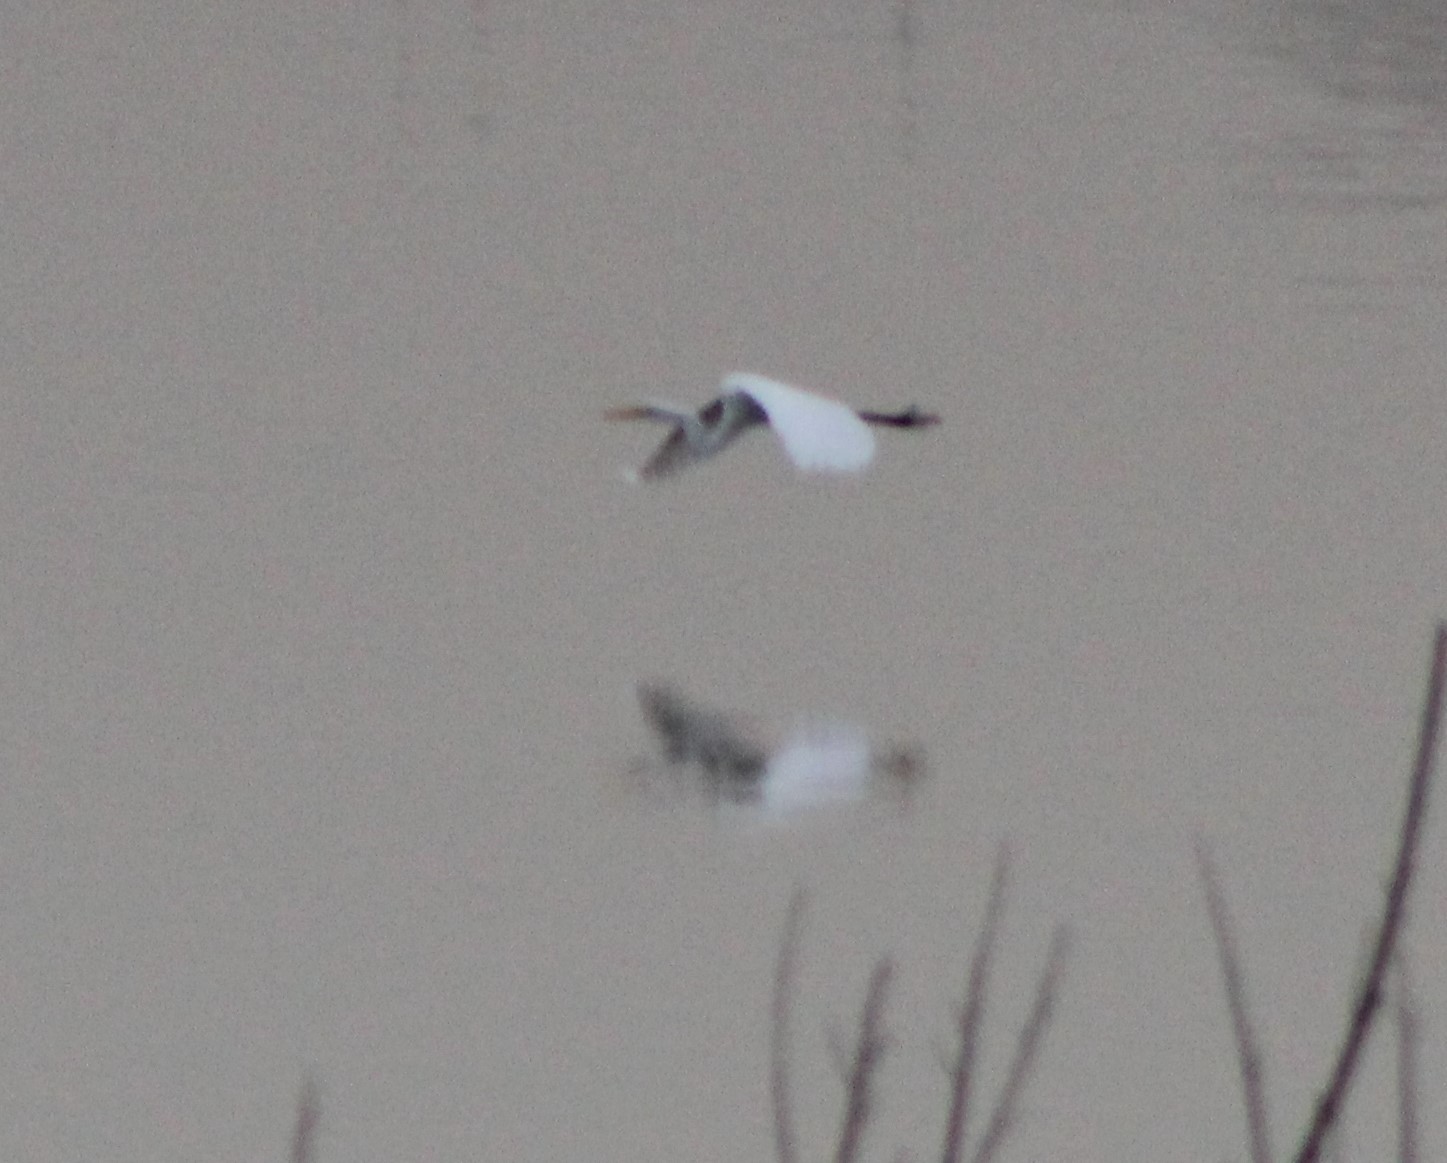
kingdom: Animalia
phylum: Chordata
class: Aves
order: Pelecaniformes
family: Ardeidae
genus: Ardea
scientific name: Ardea alba
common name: Great egret
